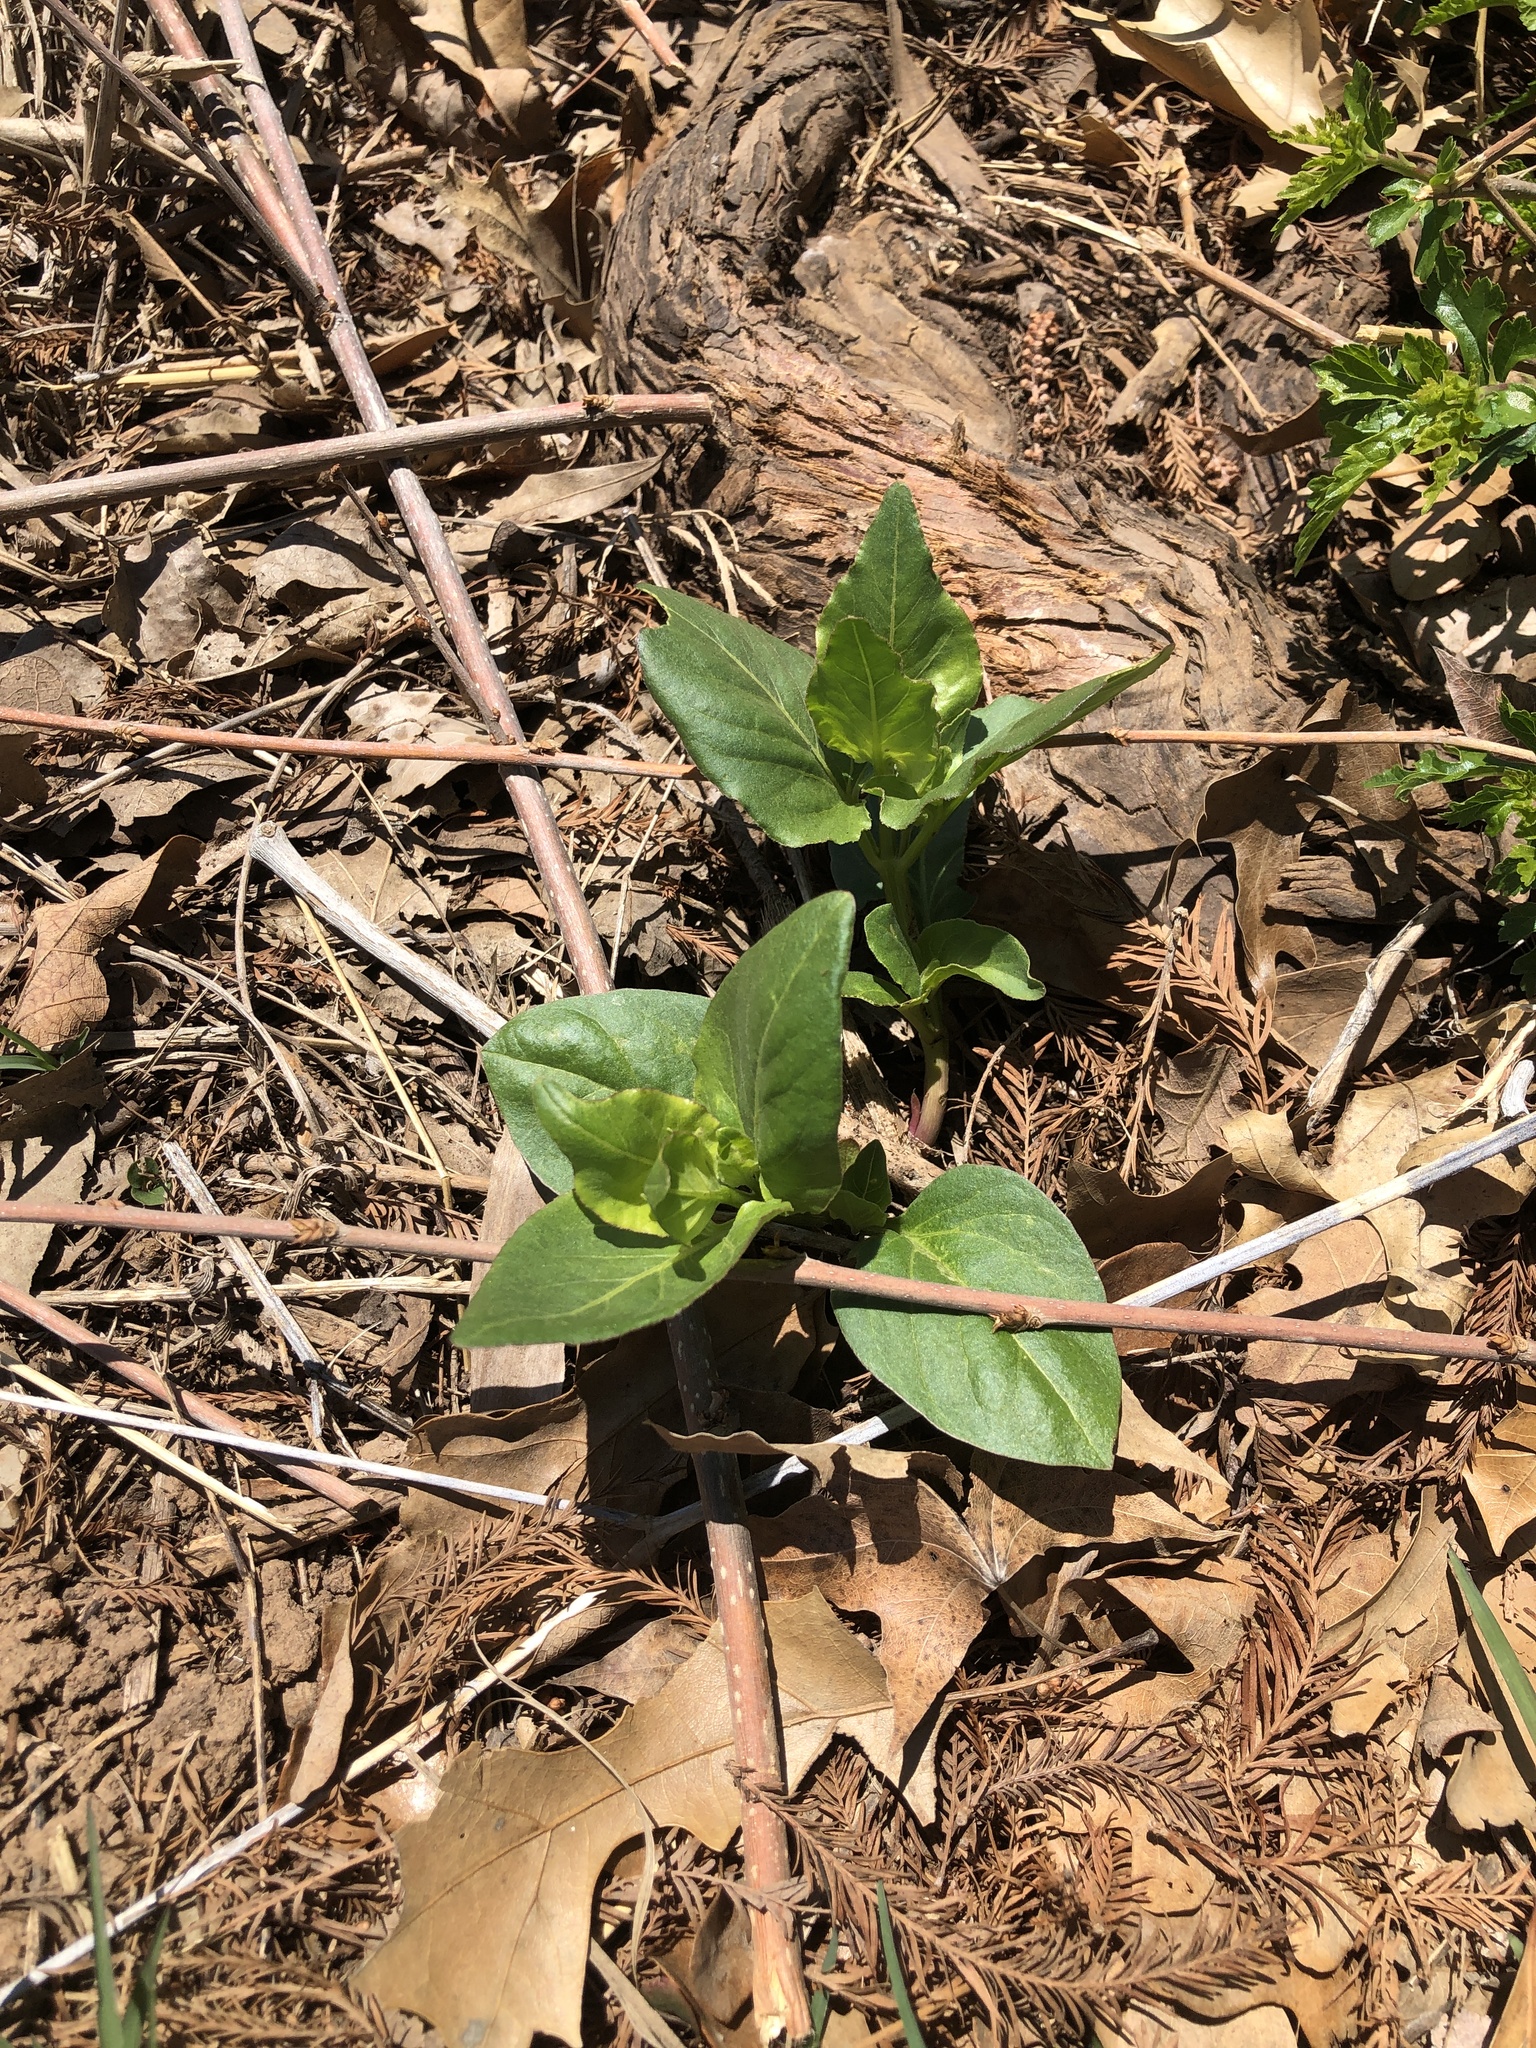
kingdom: Plantae
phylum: Tracheophyta
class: Magnoliopsida
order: Gentianales
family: Apocynaceae
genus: Vinca
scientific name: Vinca major
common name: Greater periwinkle
